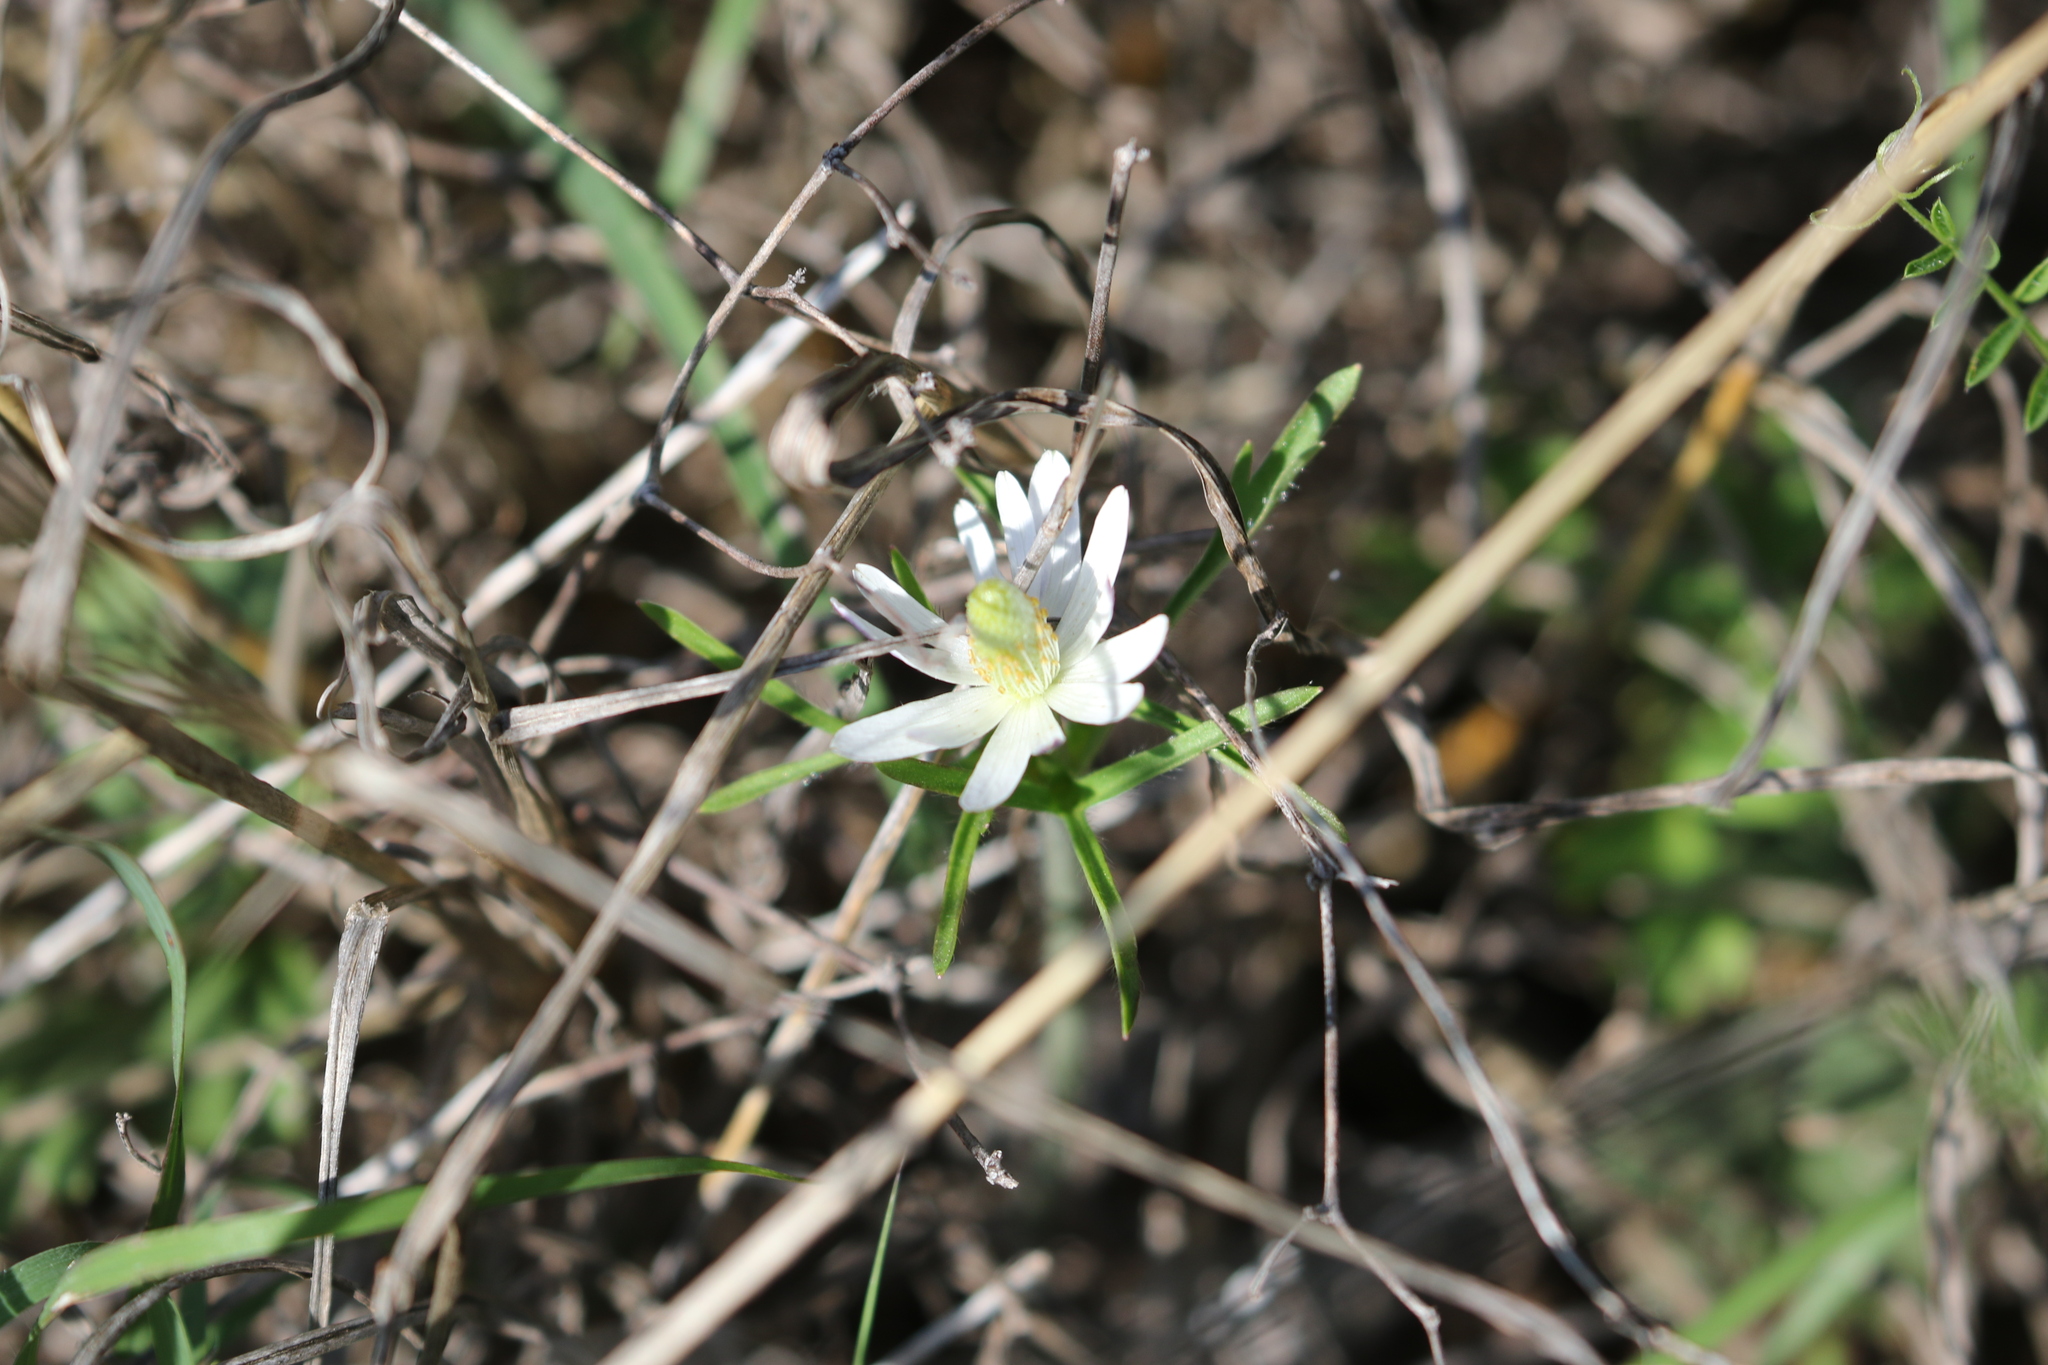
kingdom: Plantae
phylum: Tracheophyta
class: Magnoliopsida
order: Ranunculales
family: Ranunculaceae
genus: Anemone
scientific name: Anemone berlandieri
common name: Ten-petal anemone
